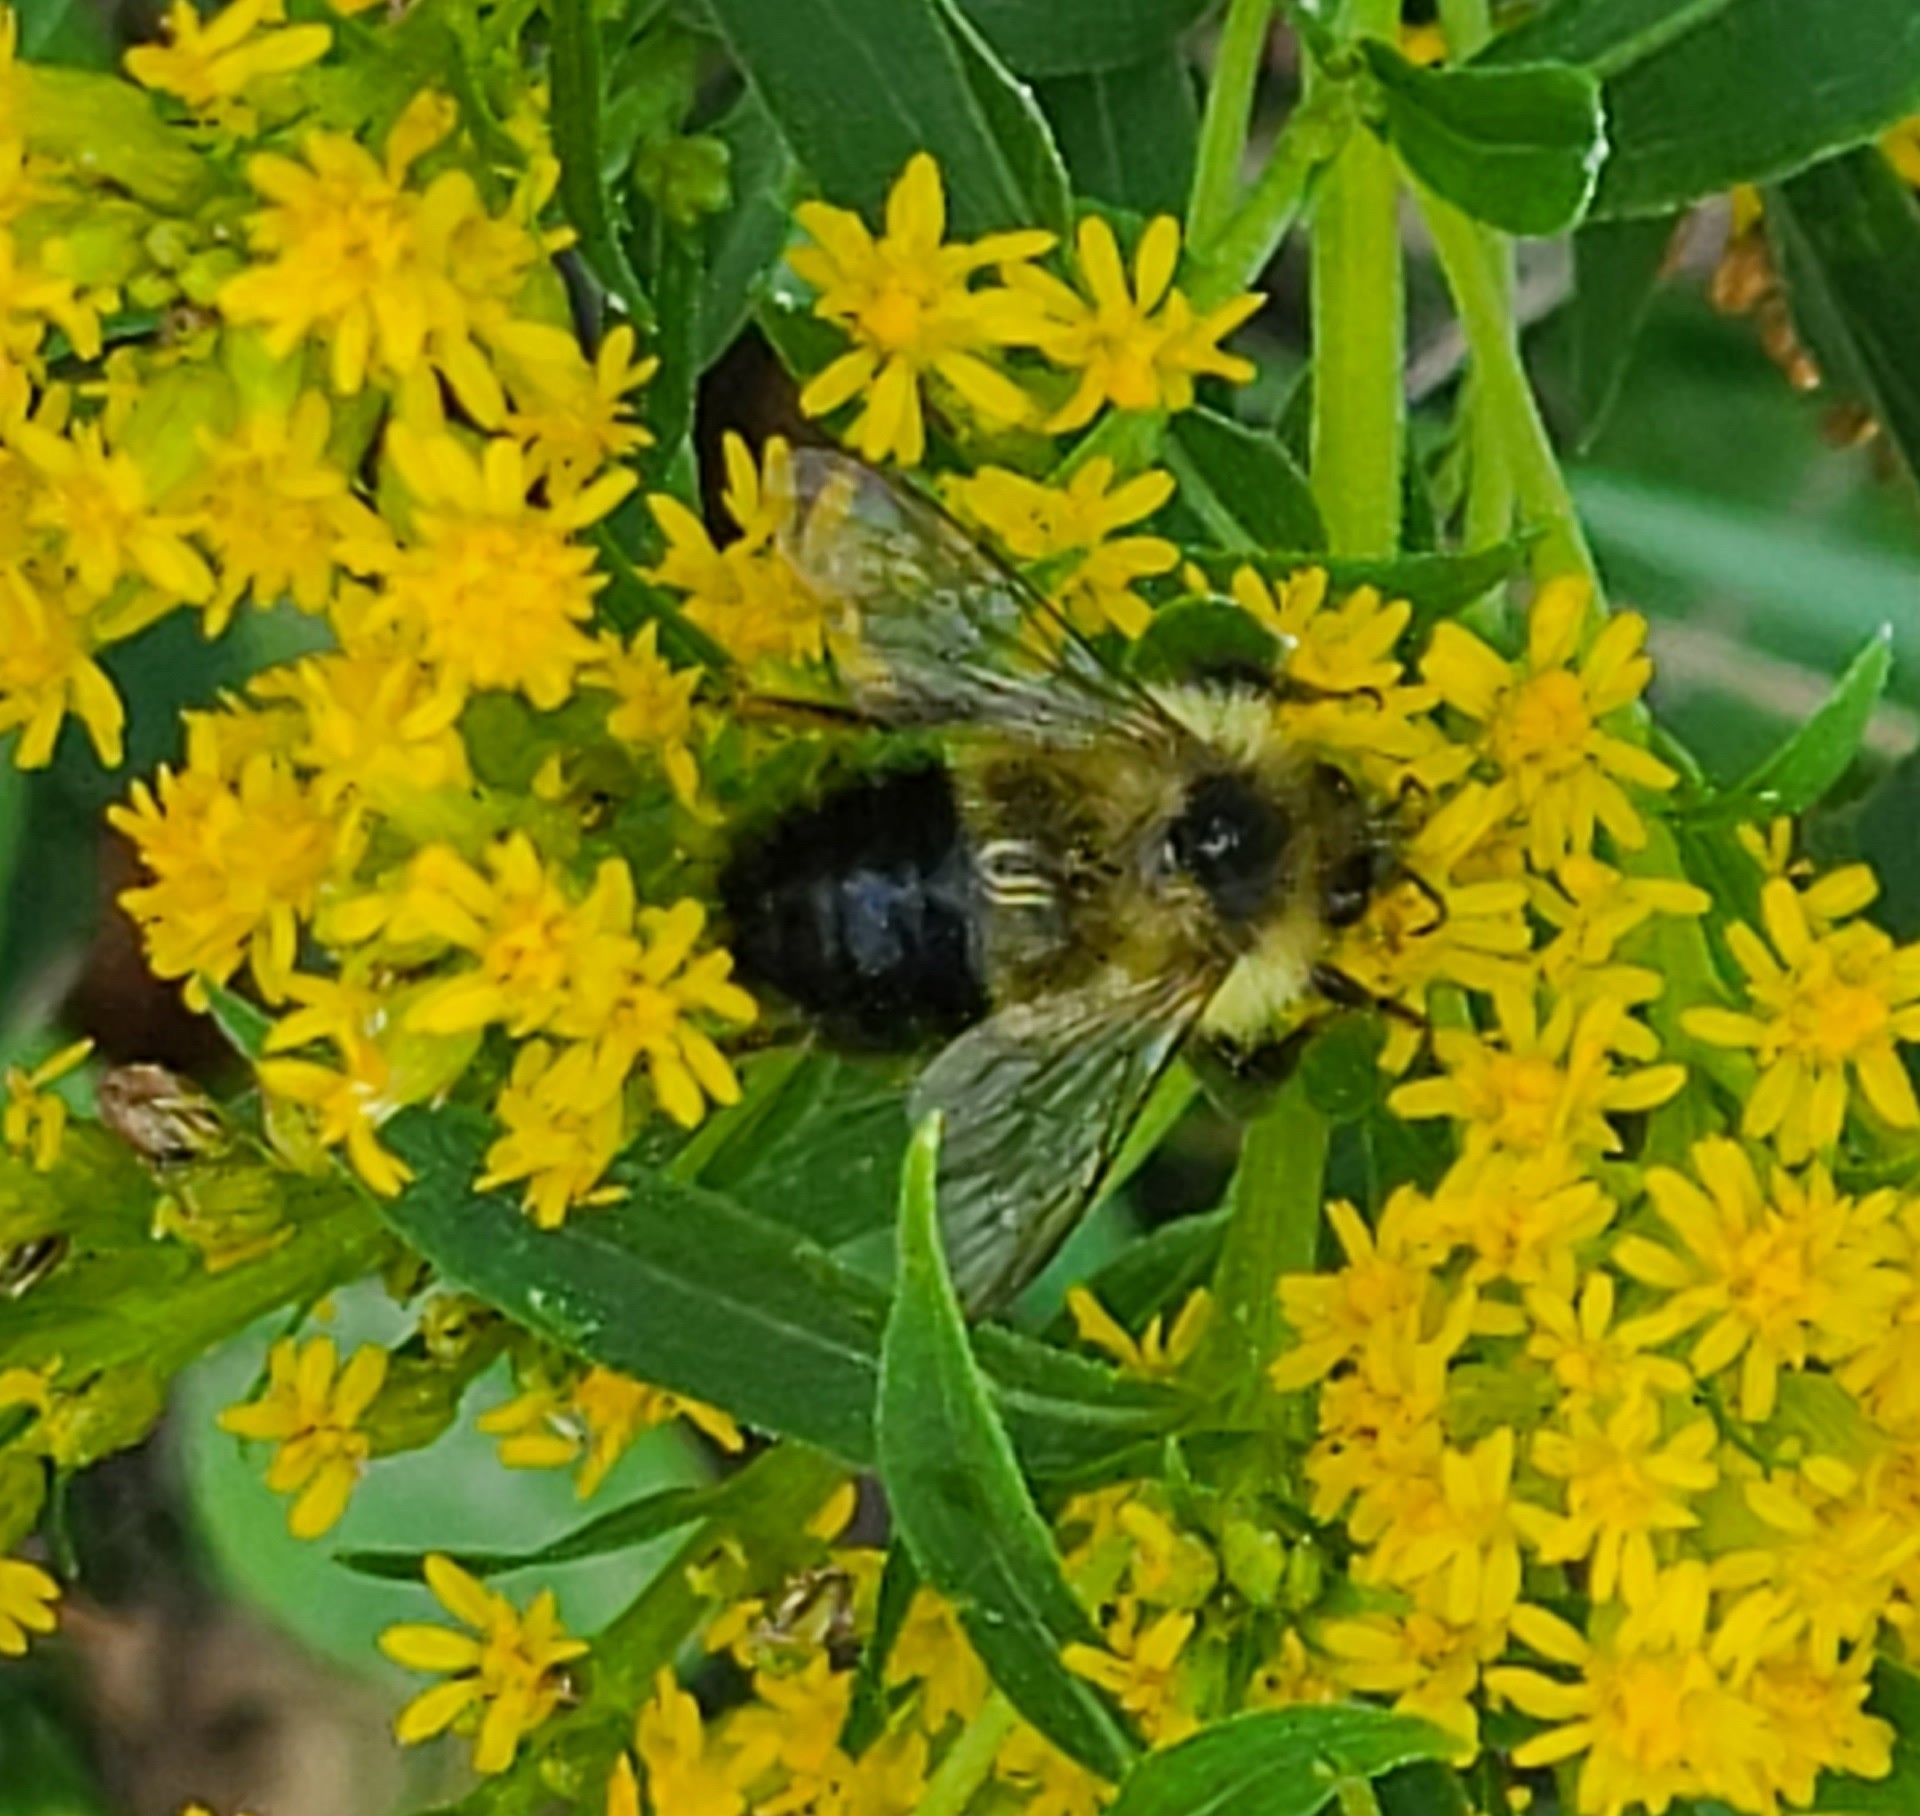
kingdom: Animalia
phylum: Arthropoda
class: Insecta
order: Hymenoptera
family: Apidae
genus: Bombus
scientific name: Bombus vagans
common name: Half-black bumble bee
